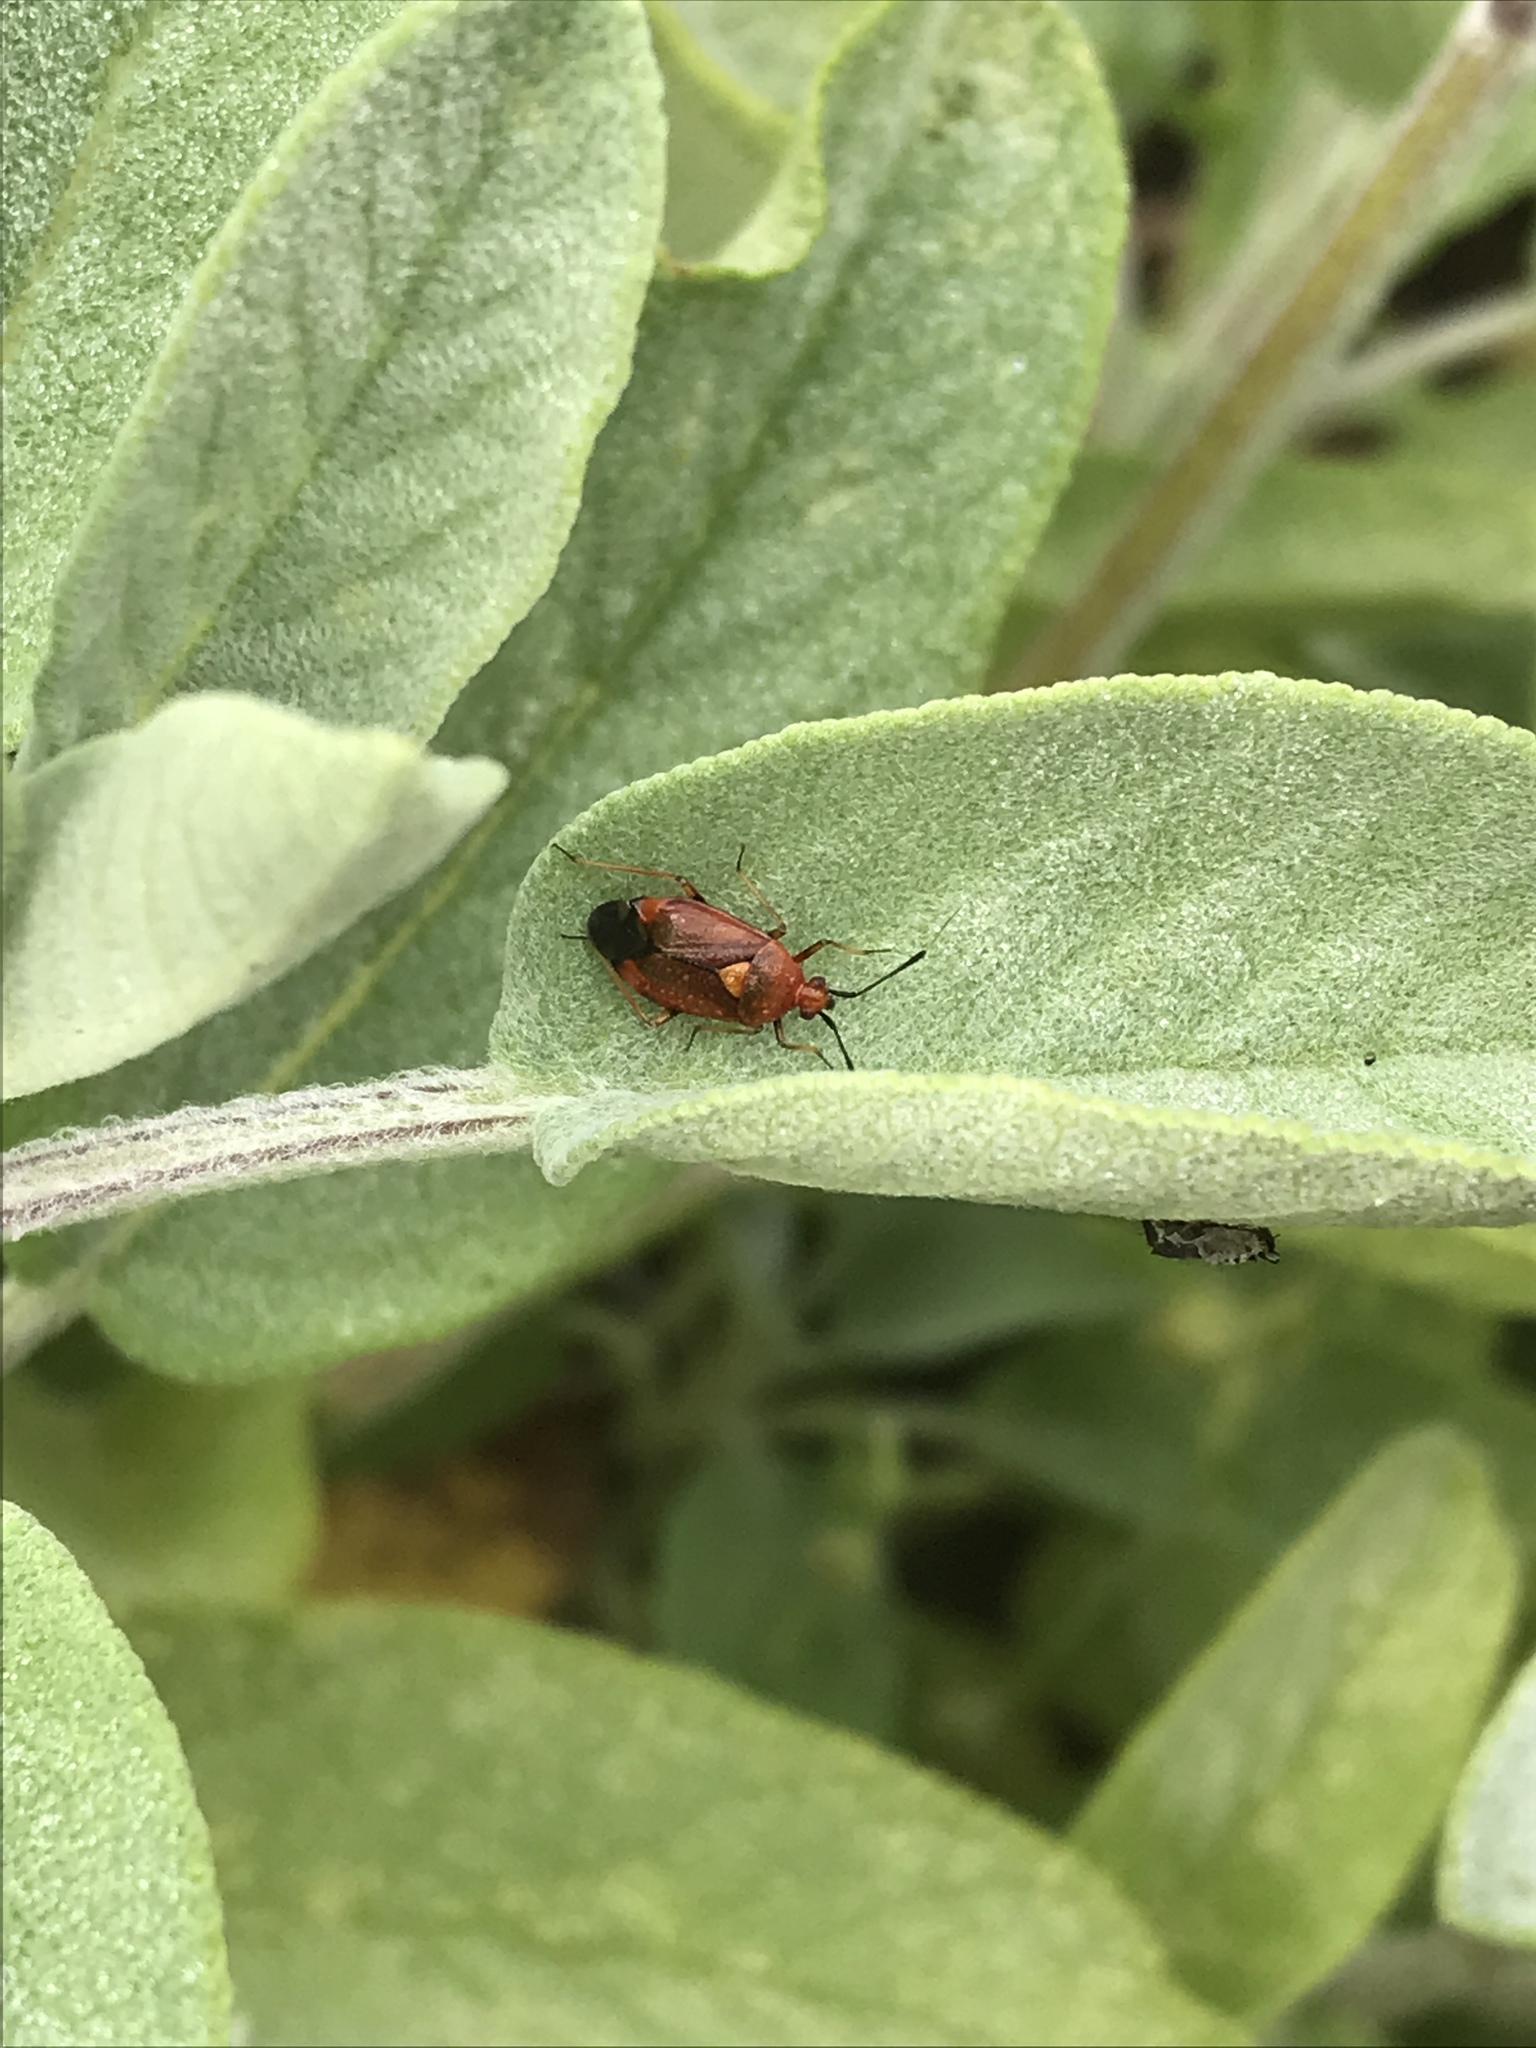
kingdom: Animalia
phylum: Arthropoda
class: Insecta
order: Hemiptera
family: Miridae
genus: Deraeocoris
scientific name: Deraeocoris ruber
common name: Plant bug
